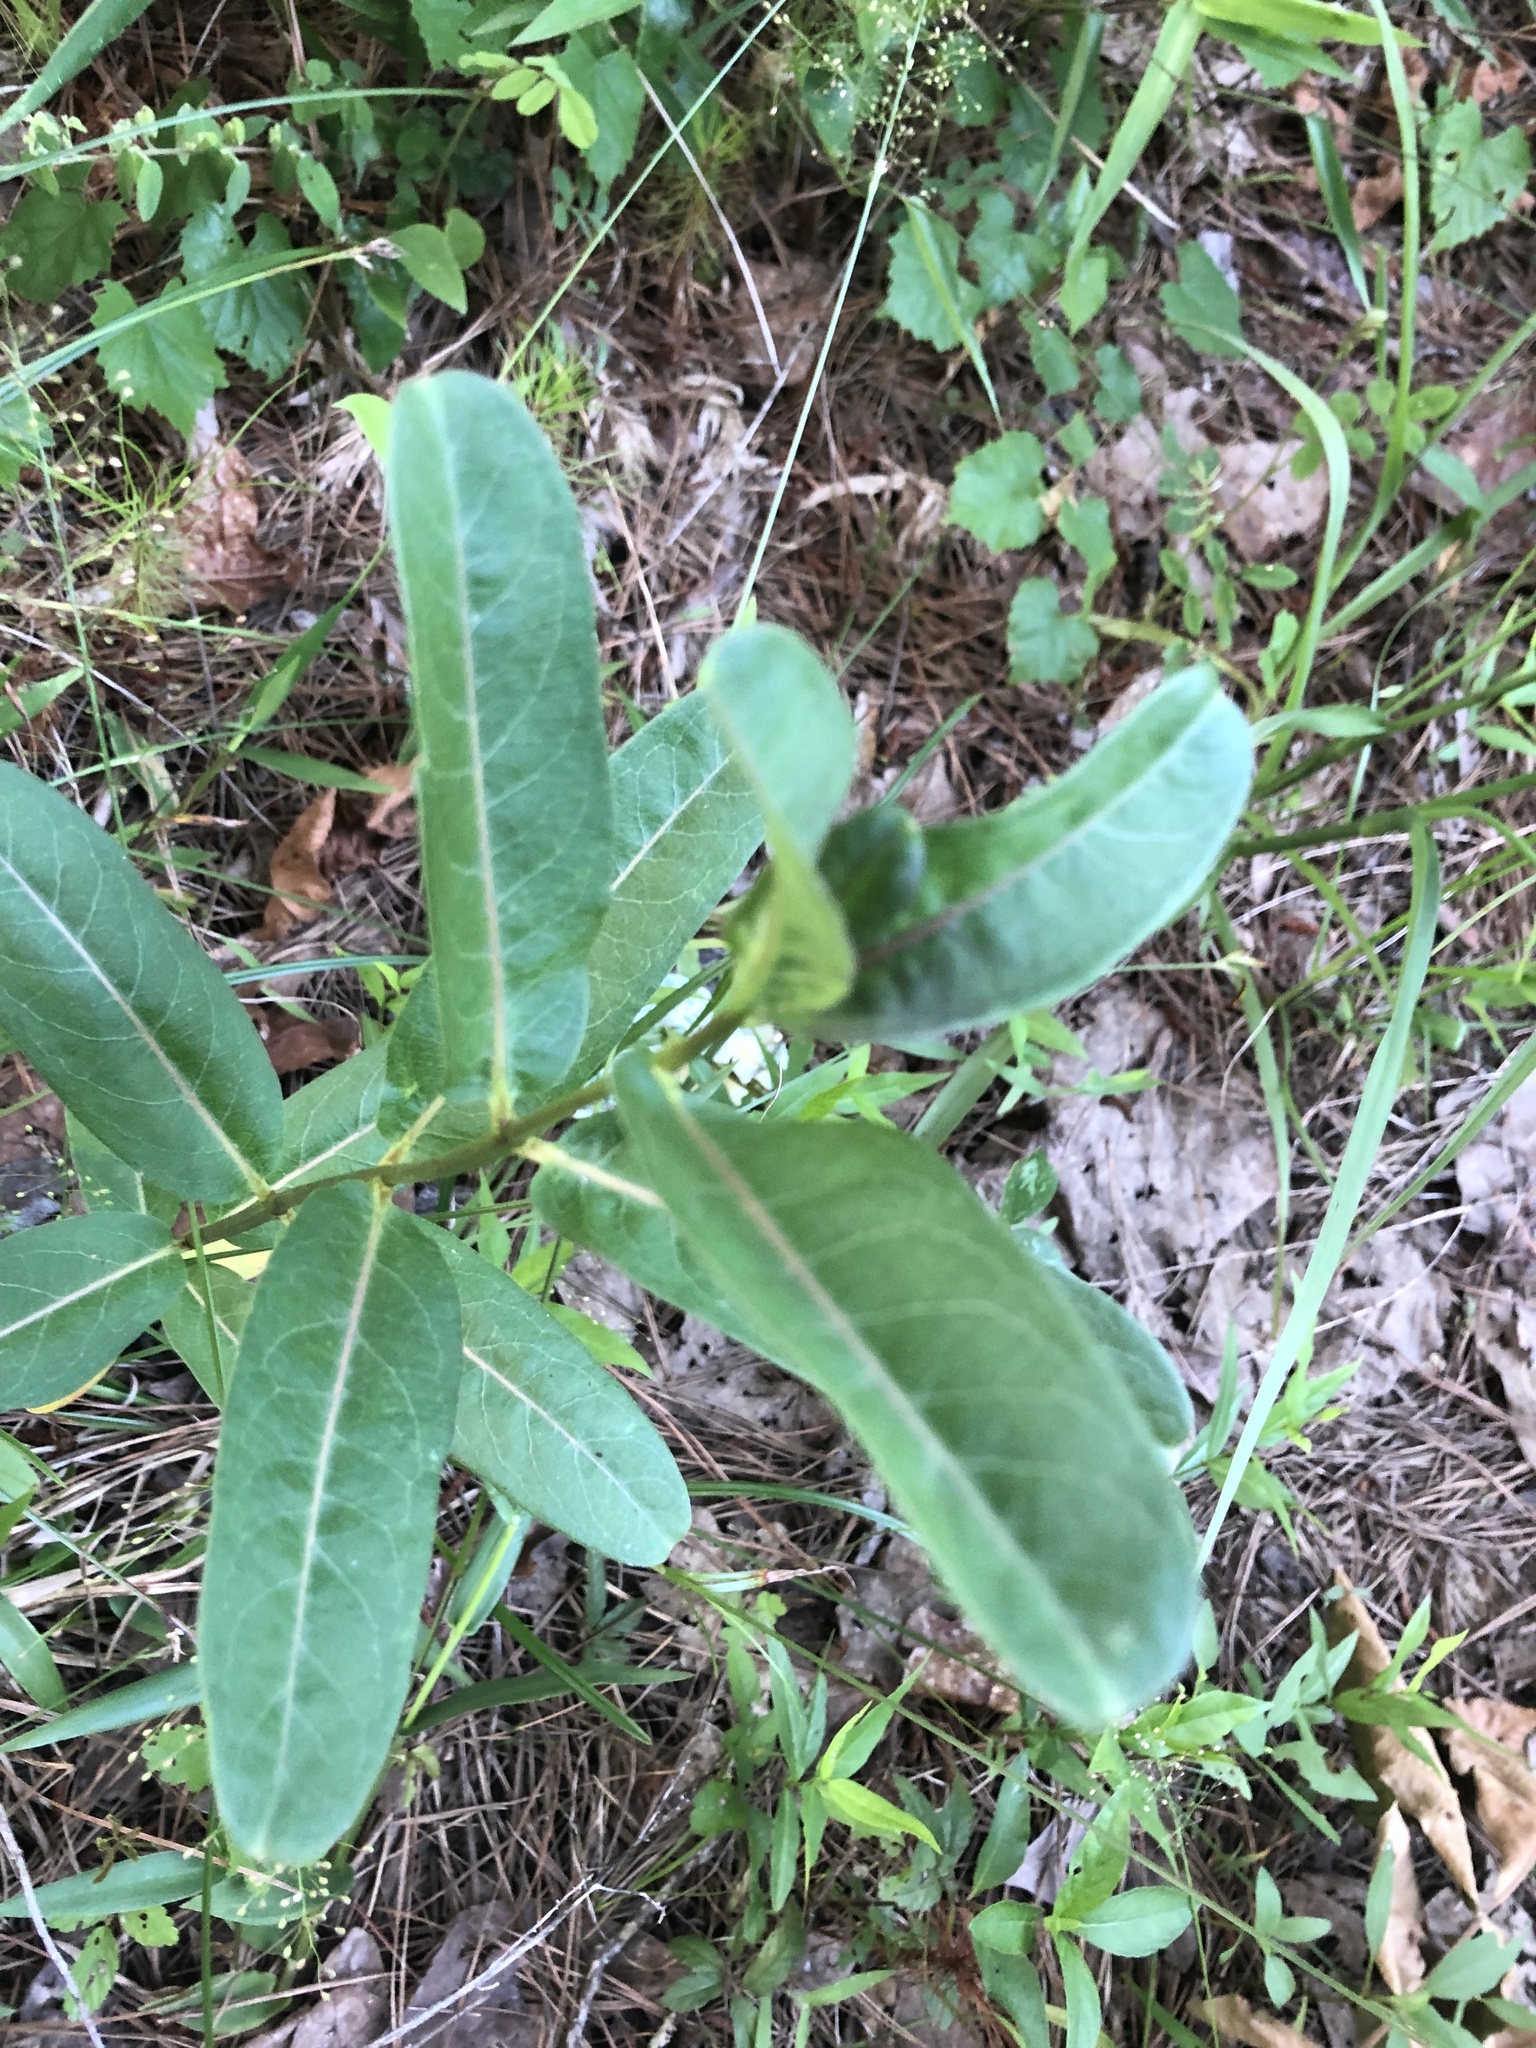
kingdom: Plantae
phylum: Tracheophyta
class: Magnoliopsida
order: Gentianales
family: Apocynaceae
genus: Asclepias
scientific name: Asclepias viridiflora
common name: Green comet milkweed
